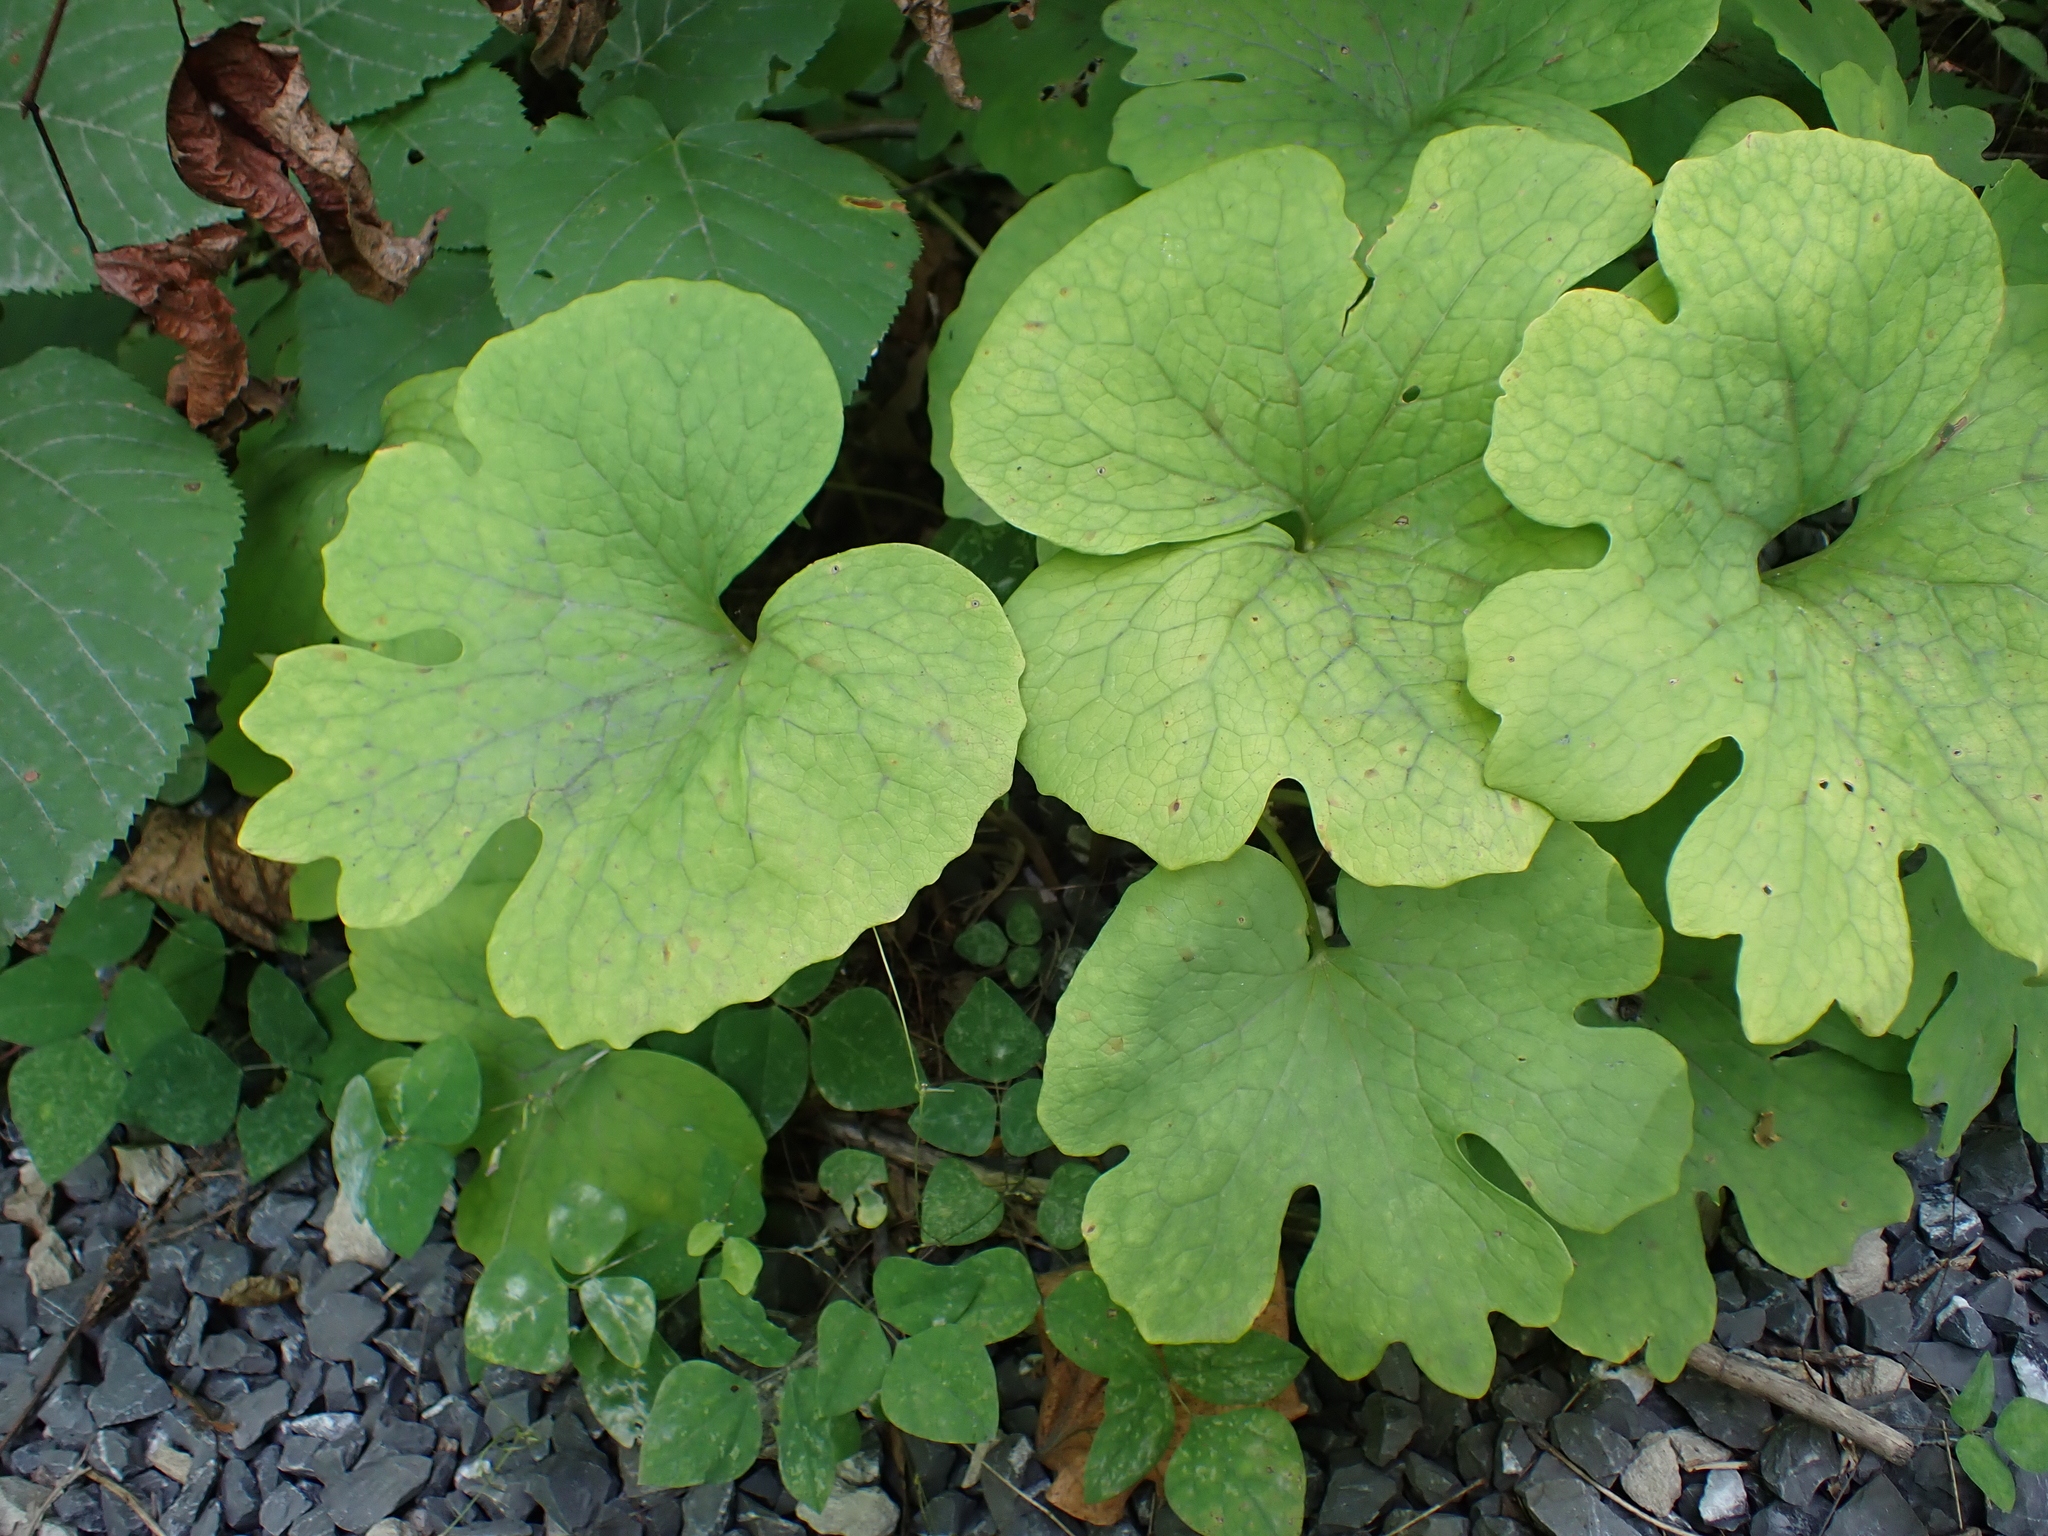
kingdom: Plantae
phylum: Tracheophyta
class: Magnoliopsida
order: Ranunculales
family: Papaveraceae
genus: Sanguinaria
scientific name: Sanguinaria canadensis
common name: Bloodroot
